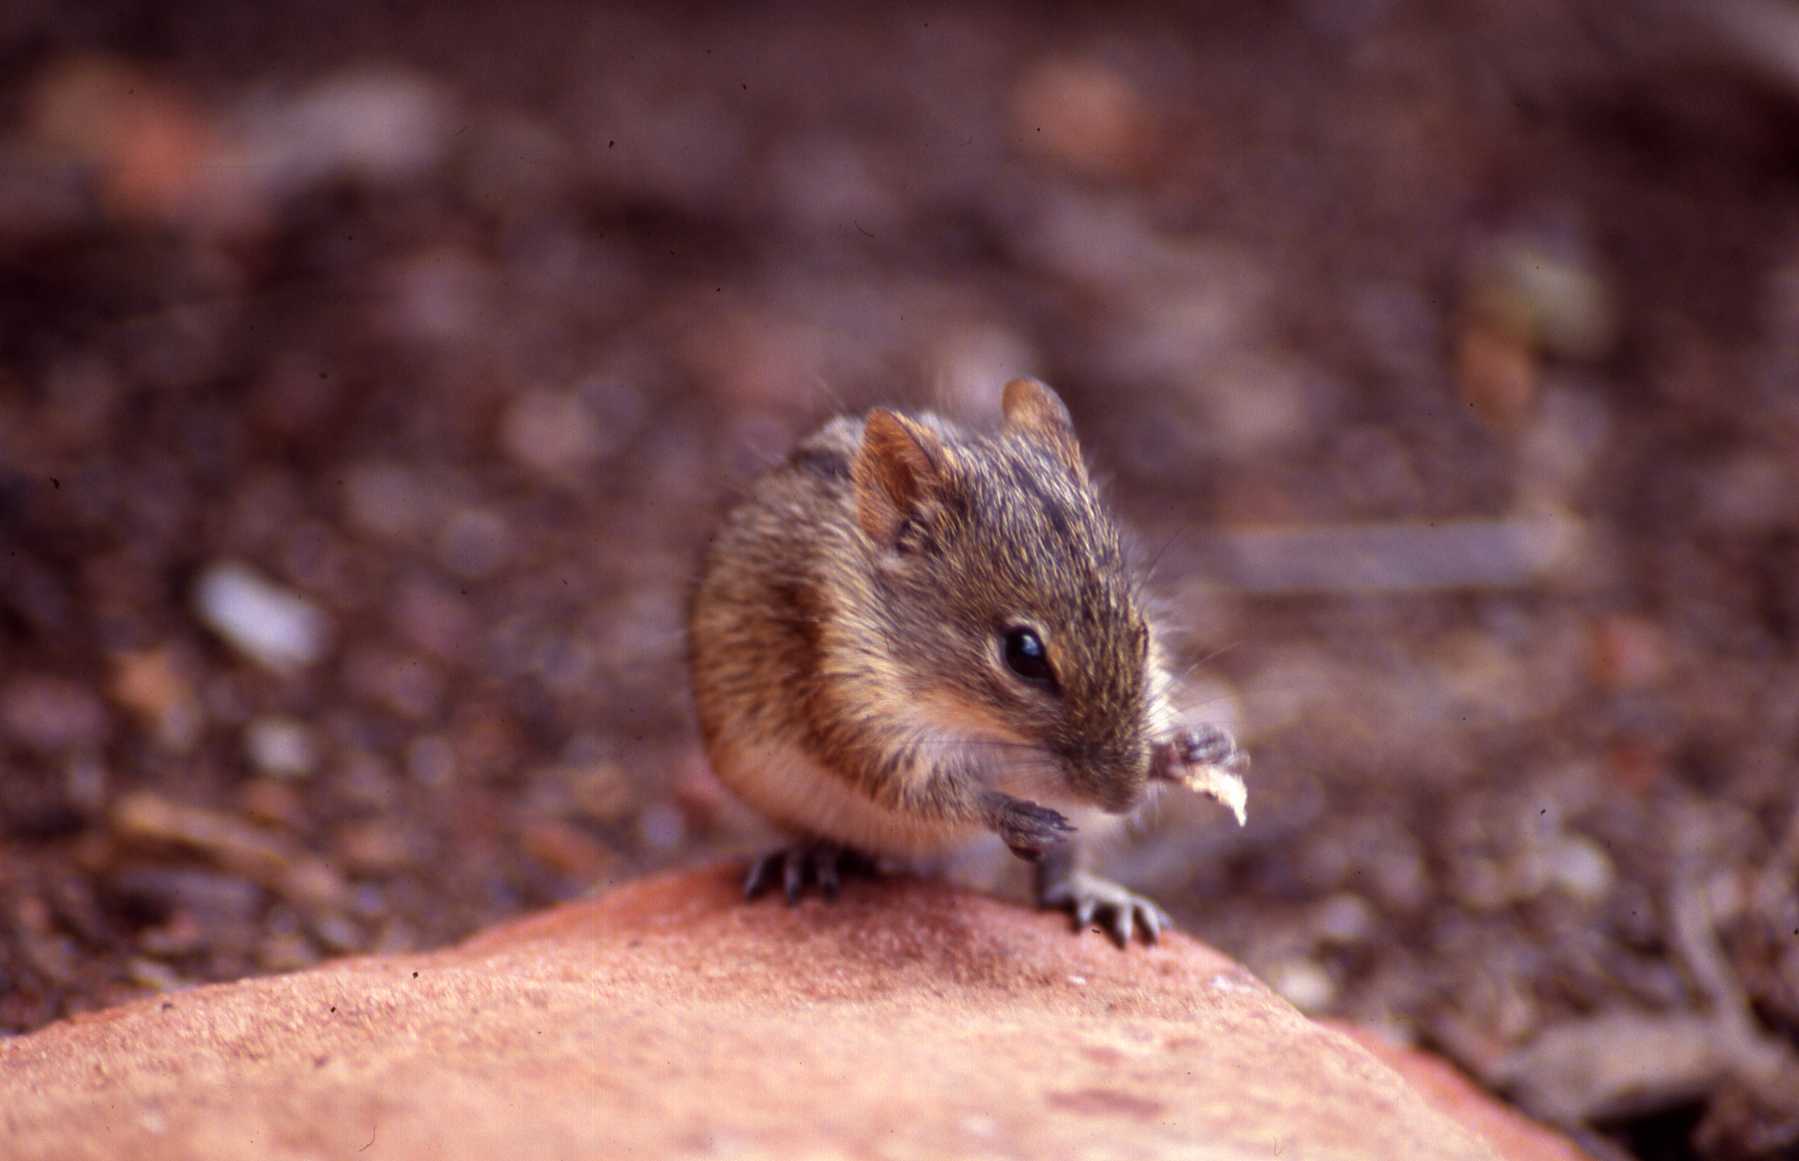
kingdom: Animalia
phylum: Chordata
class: Mammalia
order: Rodentia
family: Muridae
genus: Rhabdomys
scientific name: Rhabdomys pumilio
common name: Xeric four-striped grass rat
